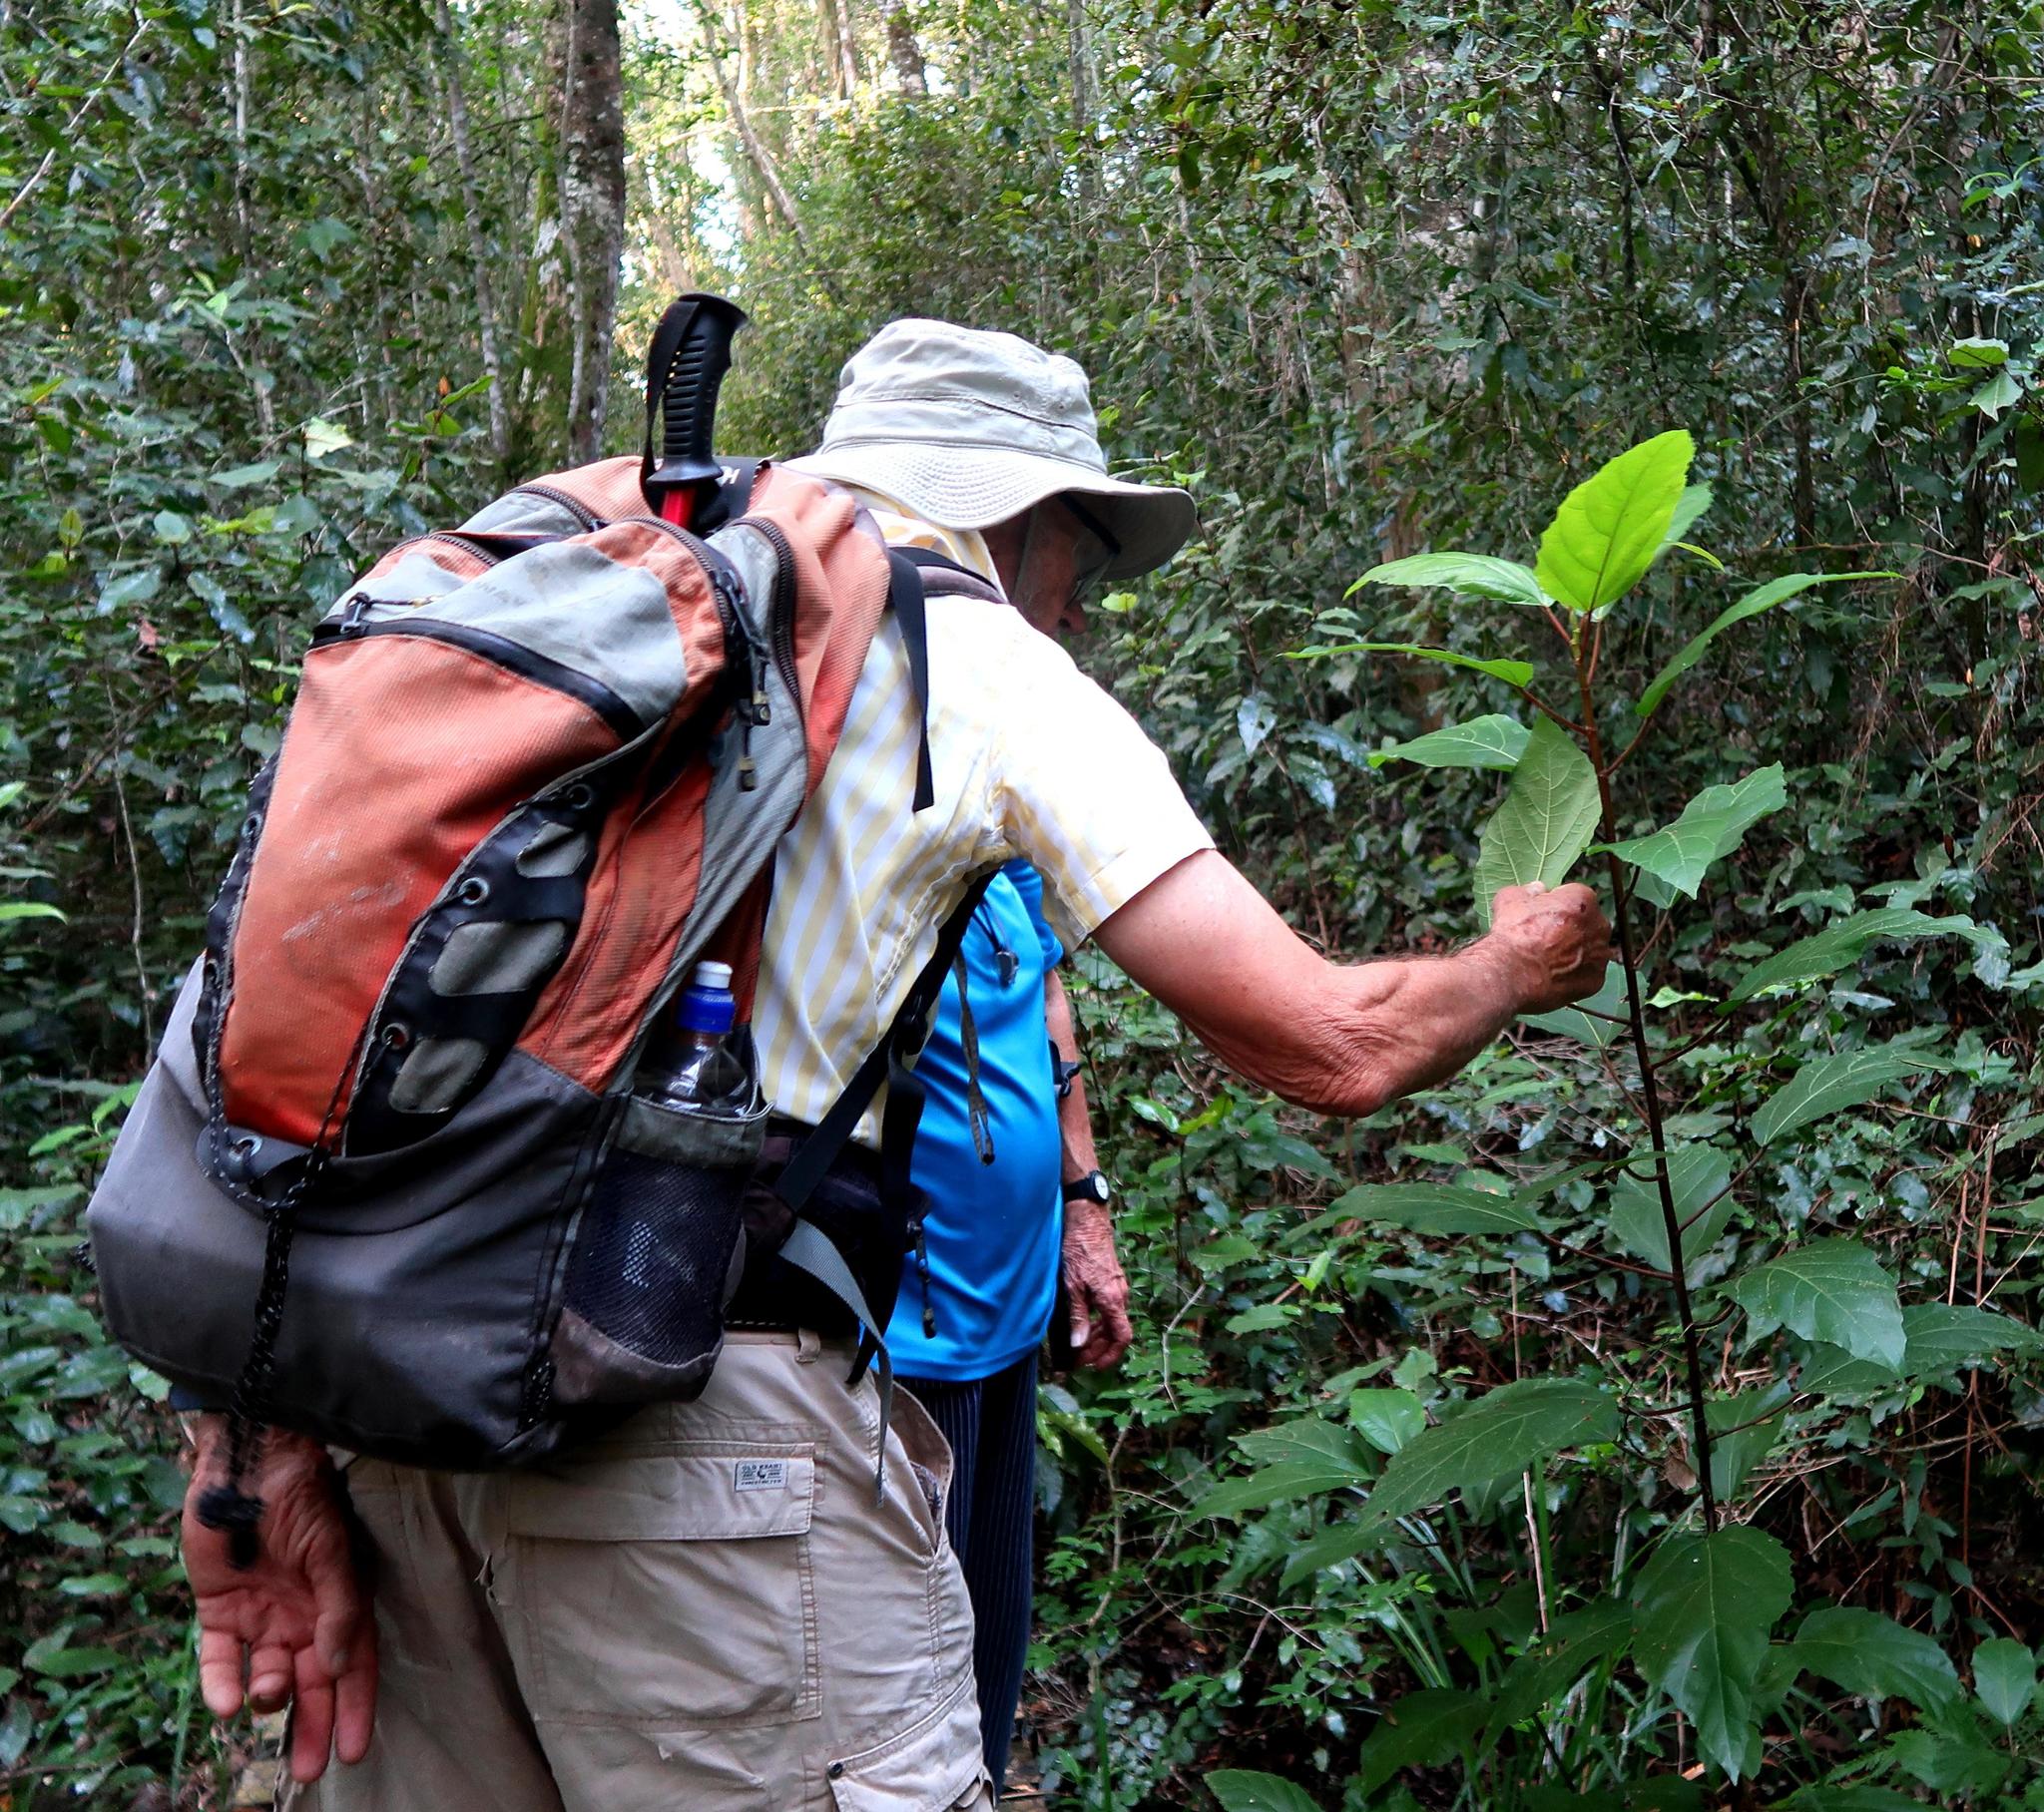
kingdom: Plantae
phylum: Tracheophyta
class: Magnoliopsida
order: Rosales
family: Moraceae
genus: Ficus
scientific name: Ficus sur
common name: Cape fig
